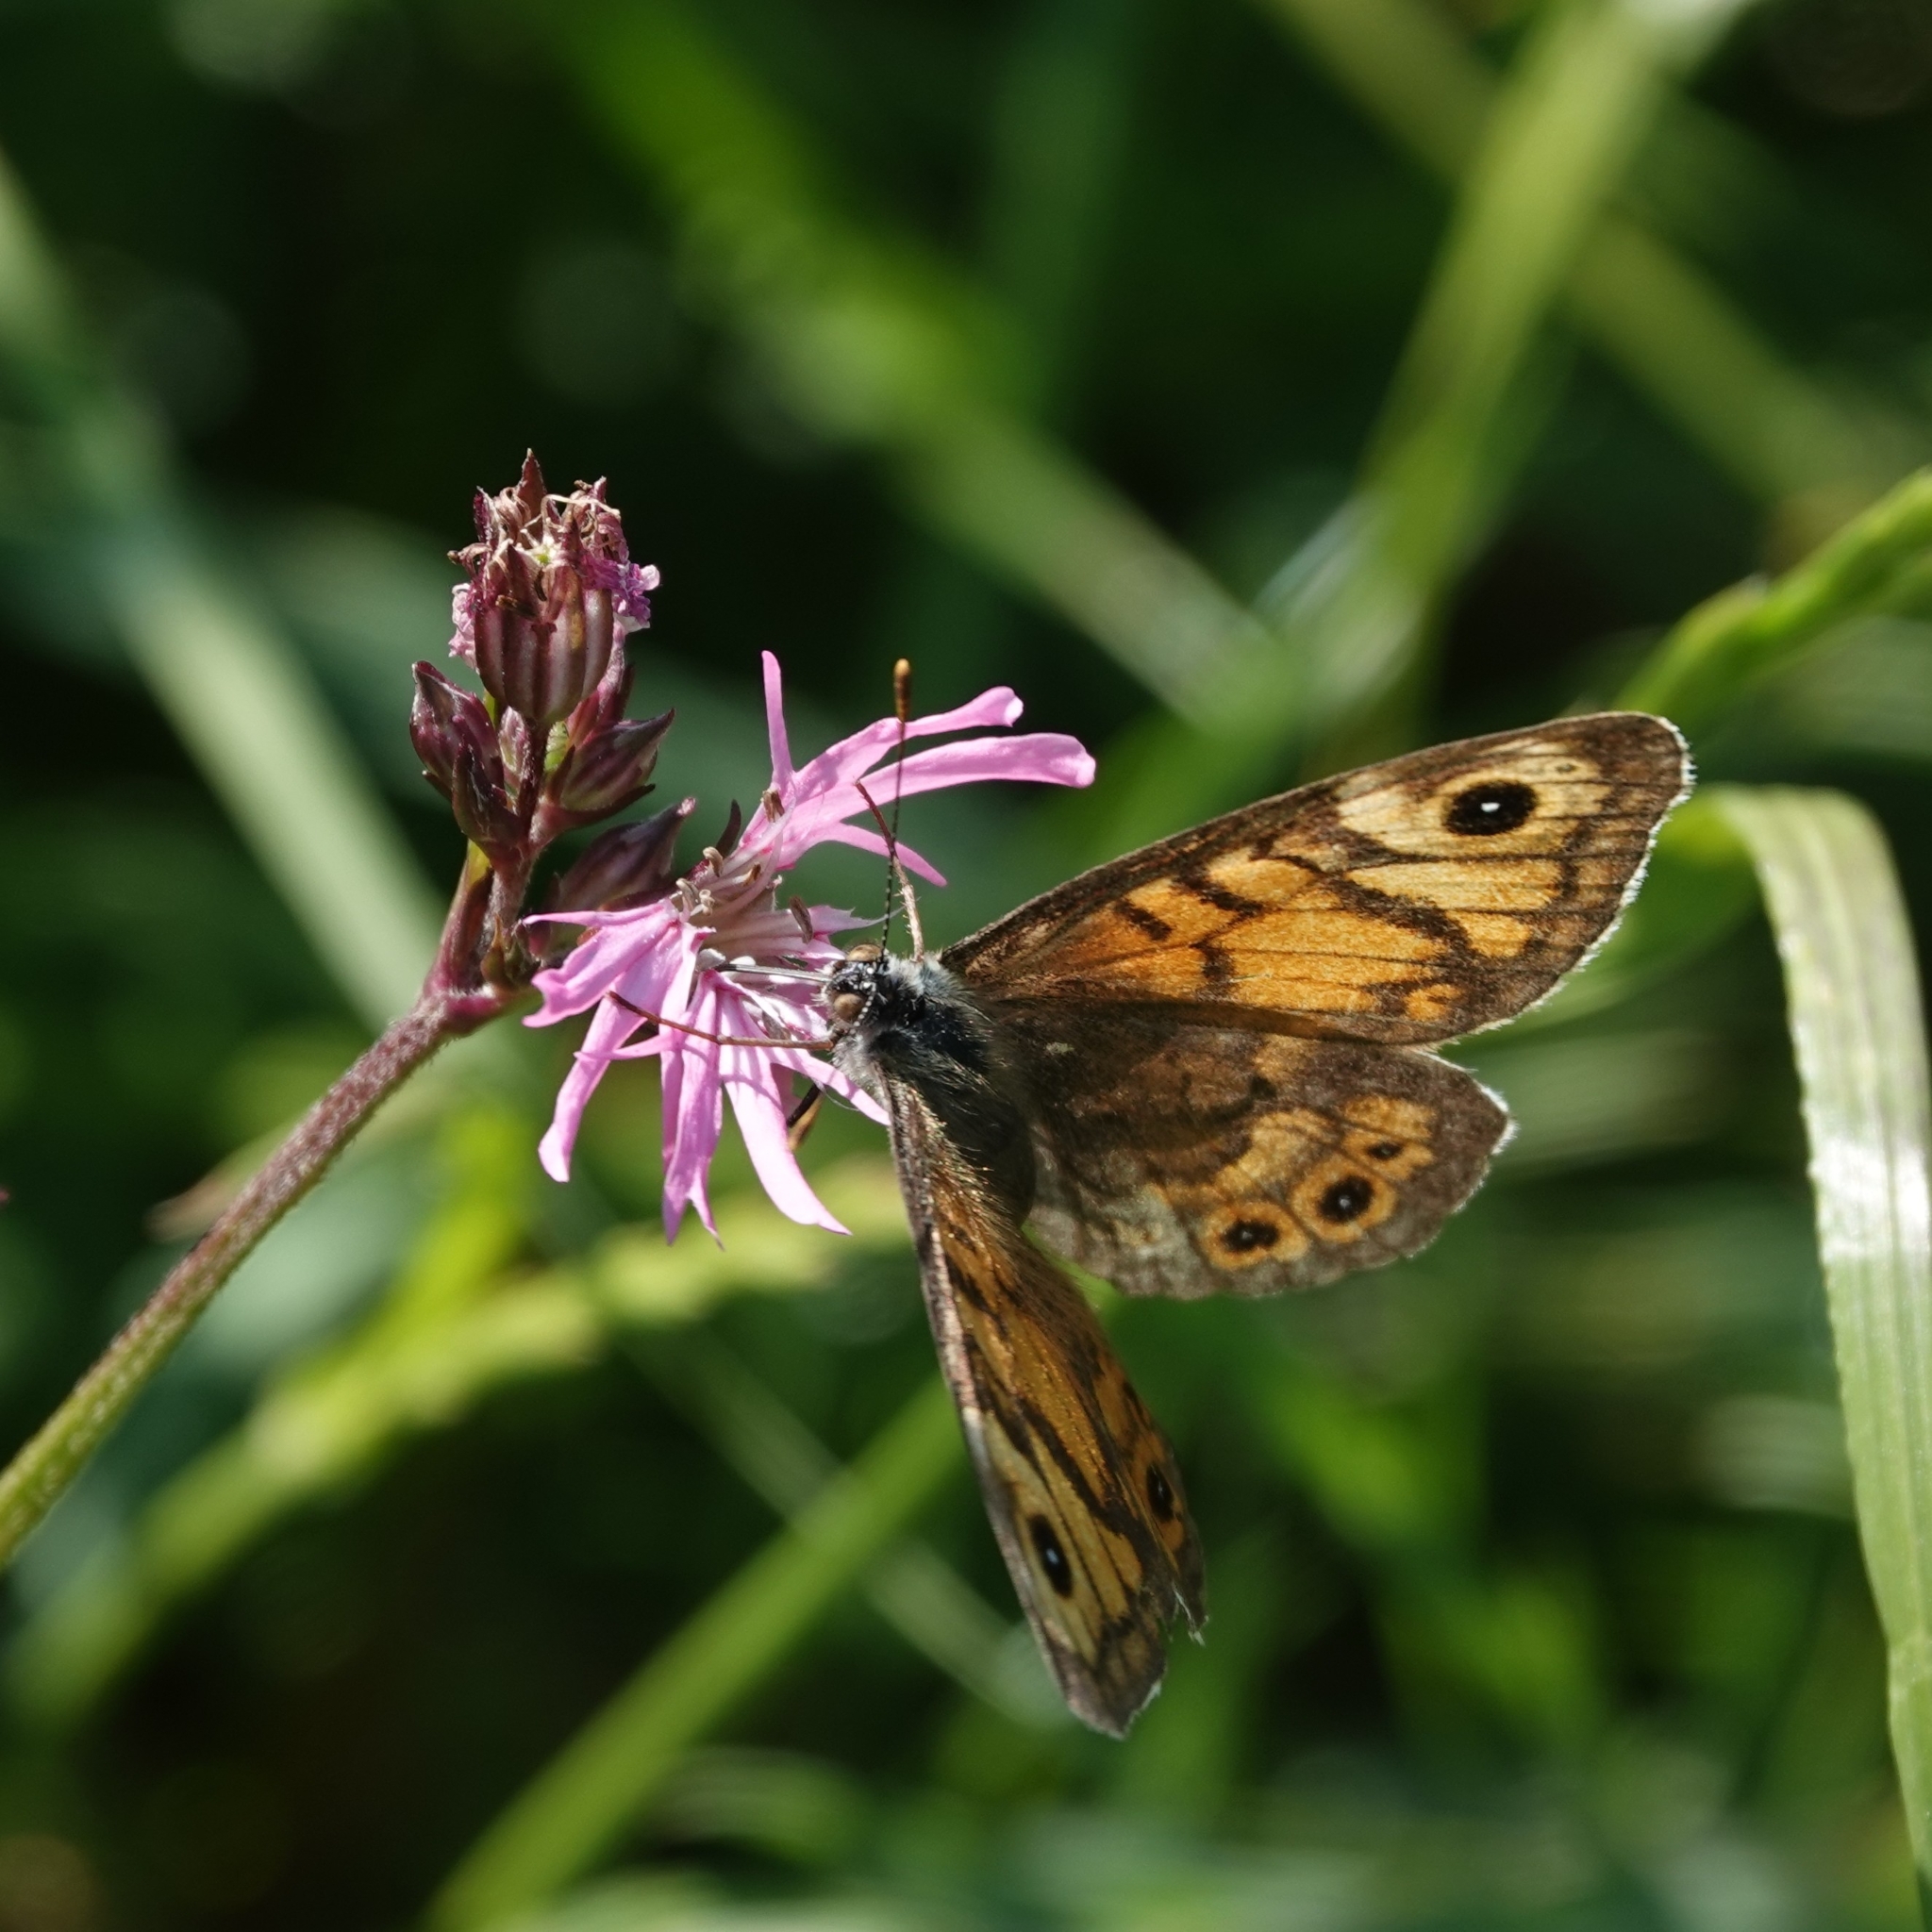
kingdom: Animalia
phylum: Arthropoda
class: Insecta
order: Lepidoptera
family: Nymphalidae
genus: Pararge
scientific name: Pararge Lasiommata megera
